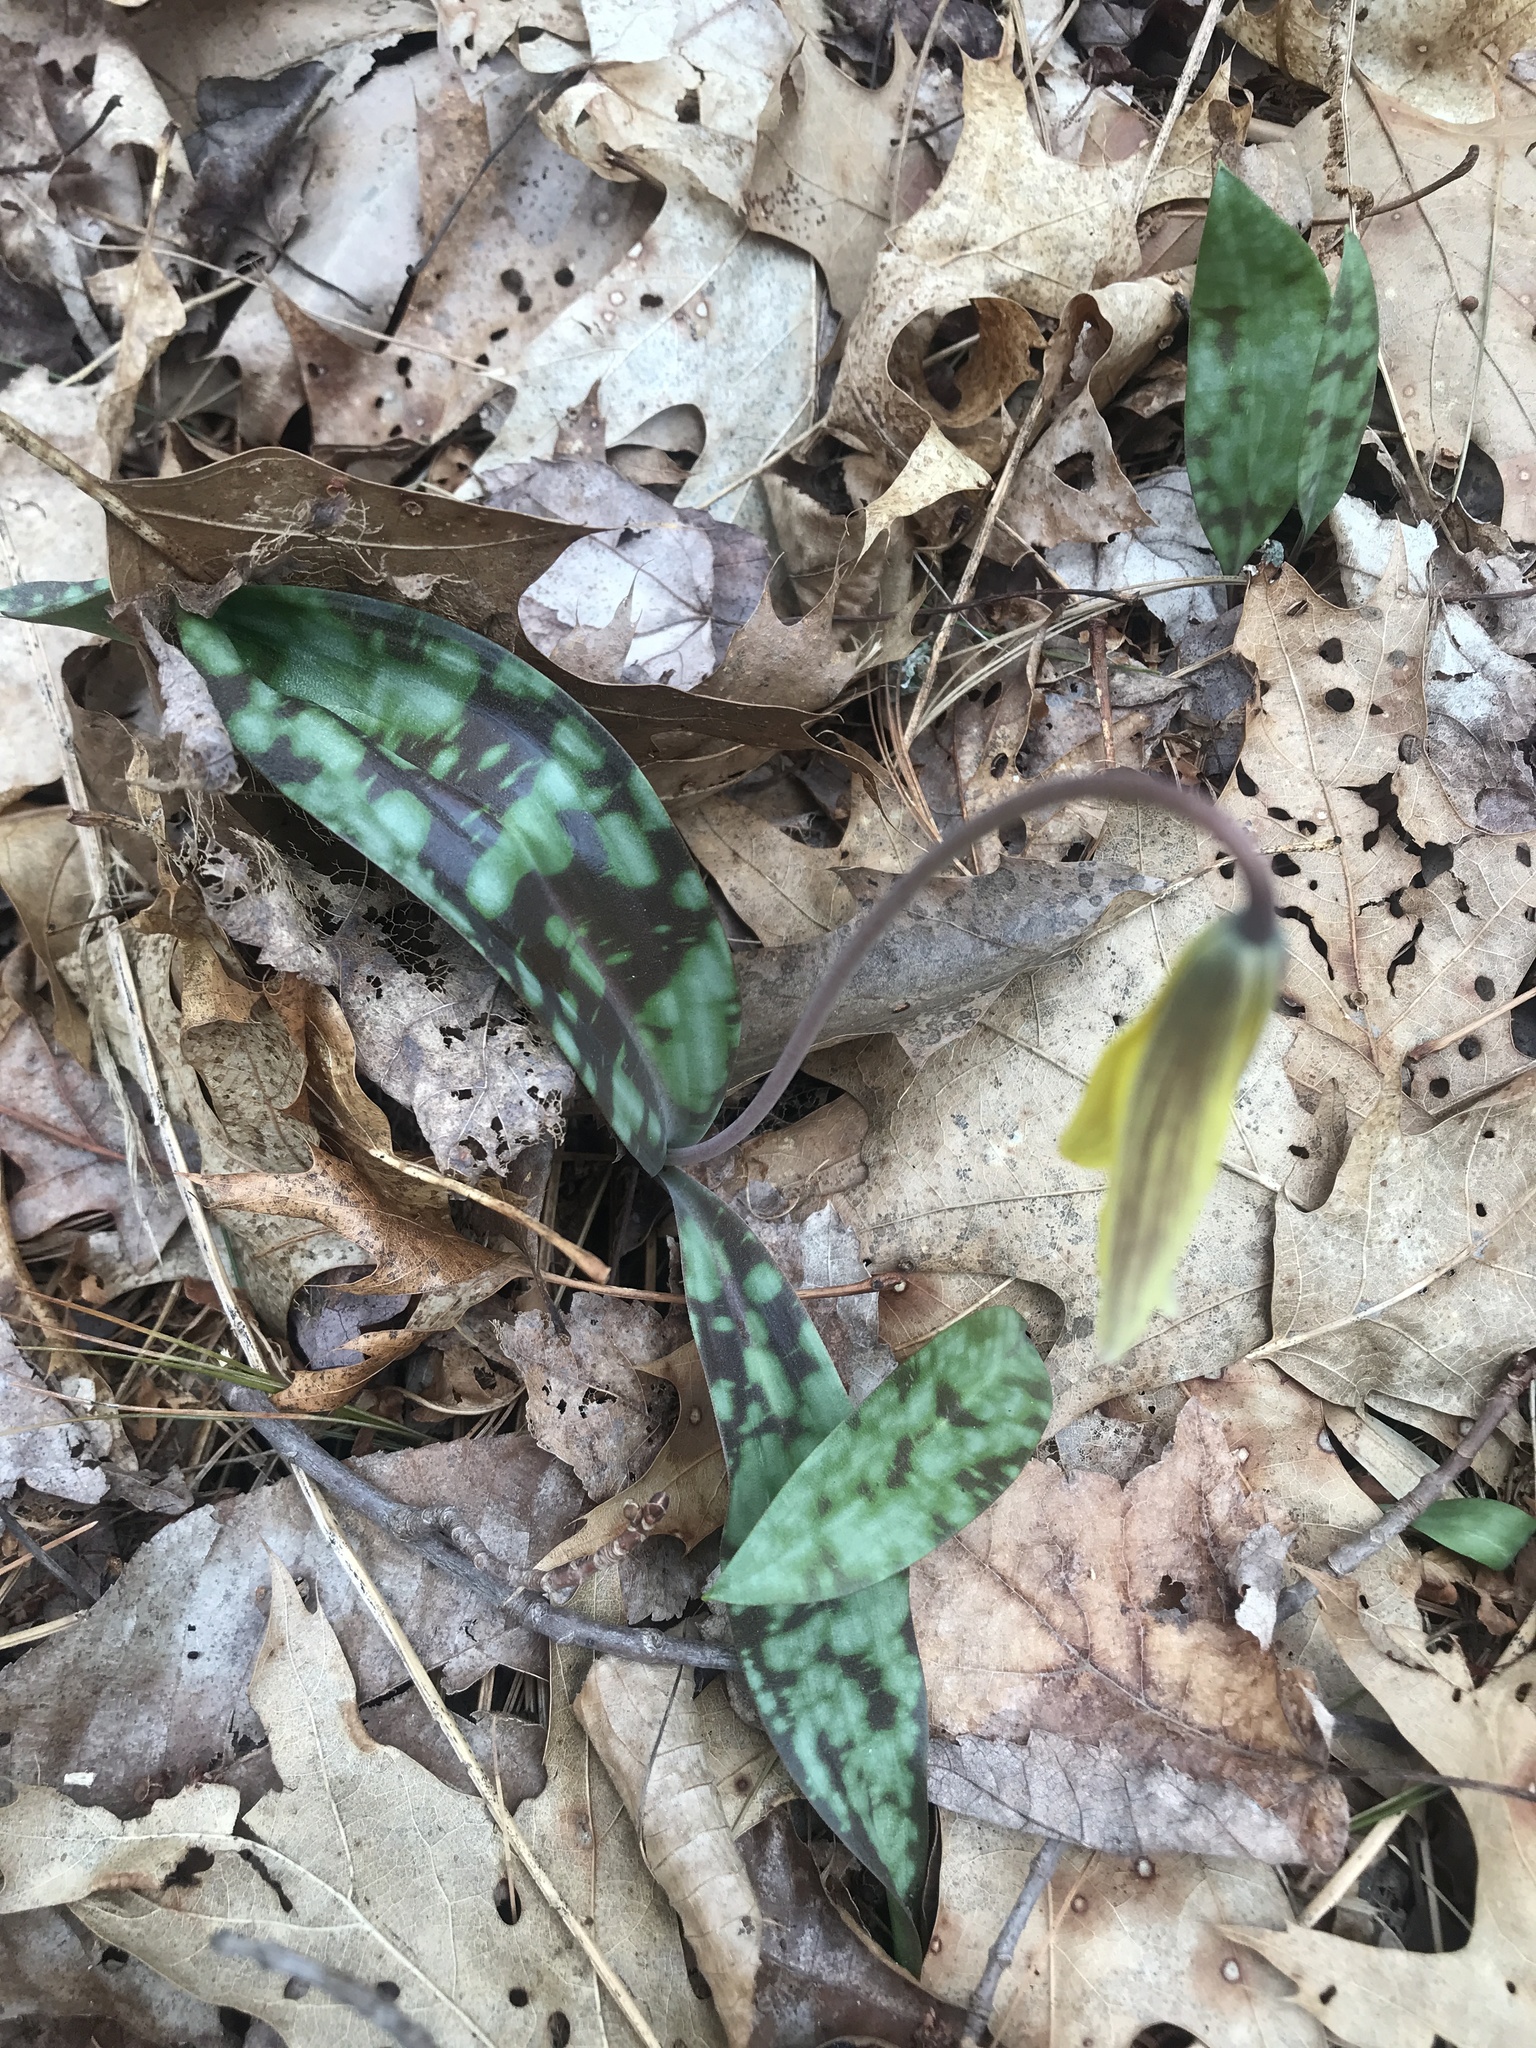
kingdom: Plantae
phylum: Tracheophyta
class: Liliopsida
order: Liliales
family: Liliaceae
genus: Erythronium
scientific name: Erythronium americanum
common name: Yellow adder's-tongue
